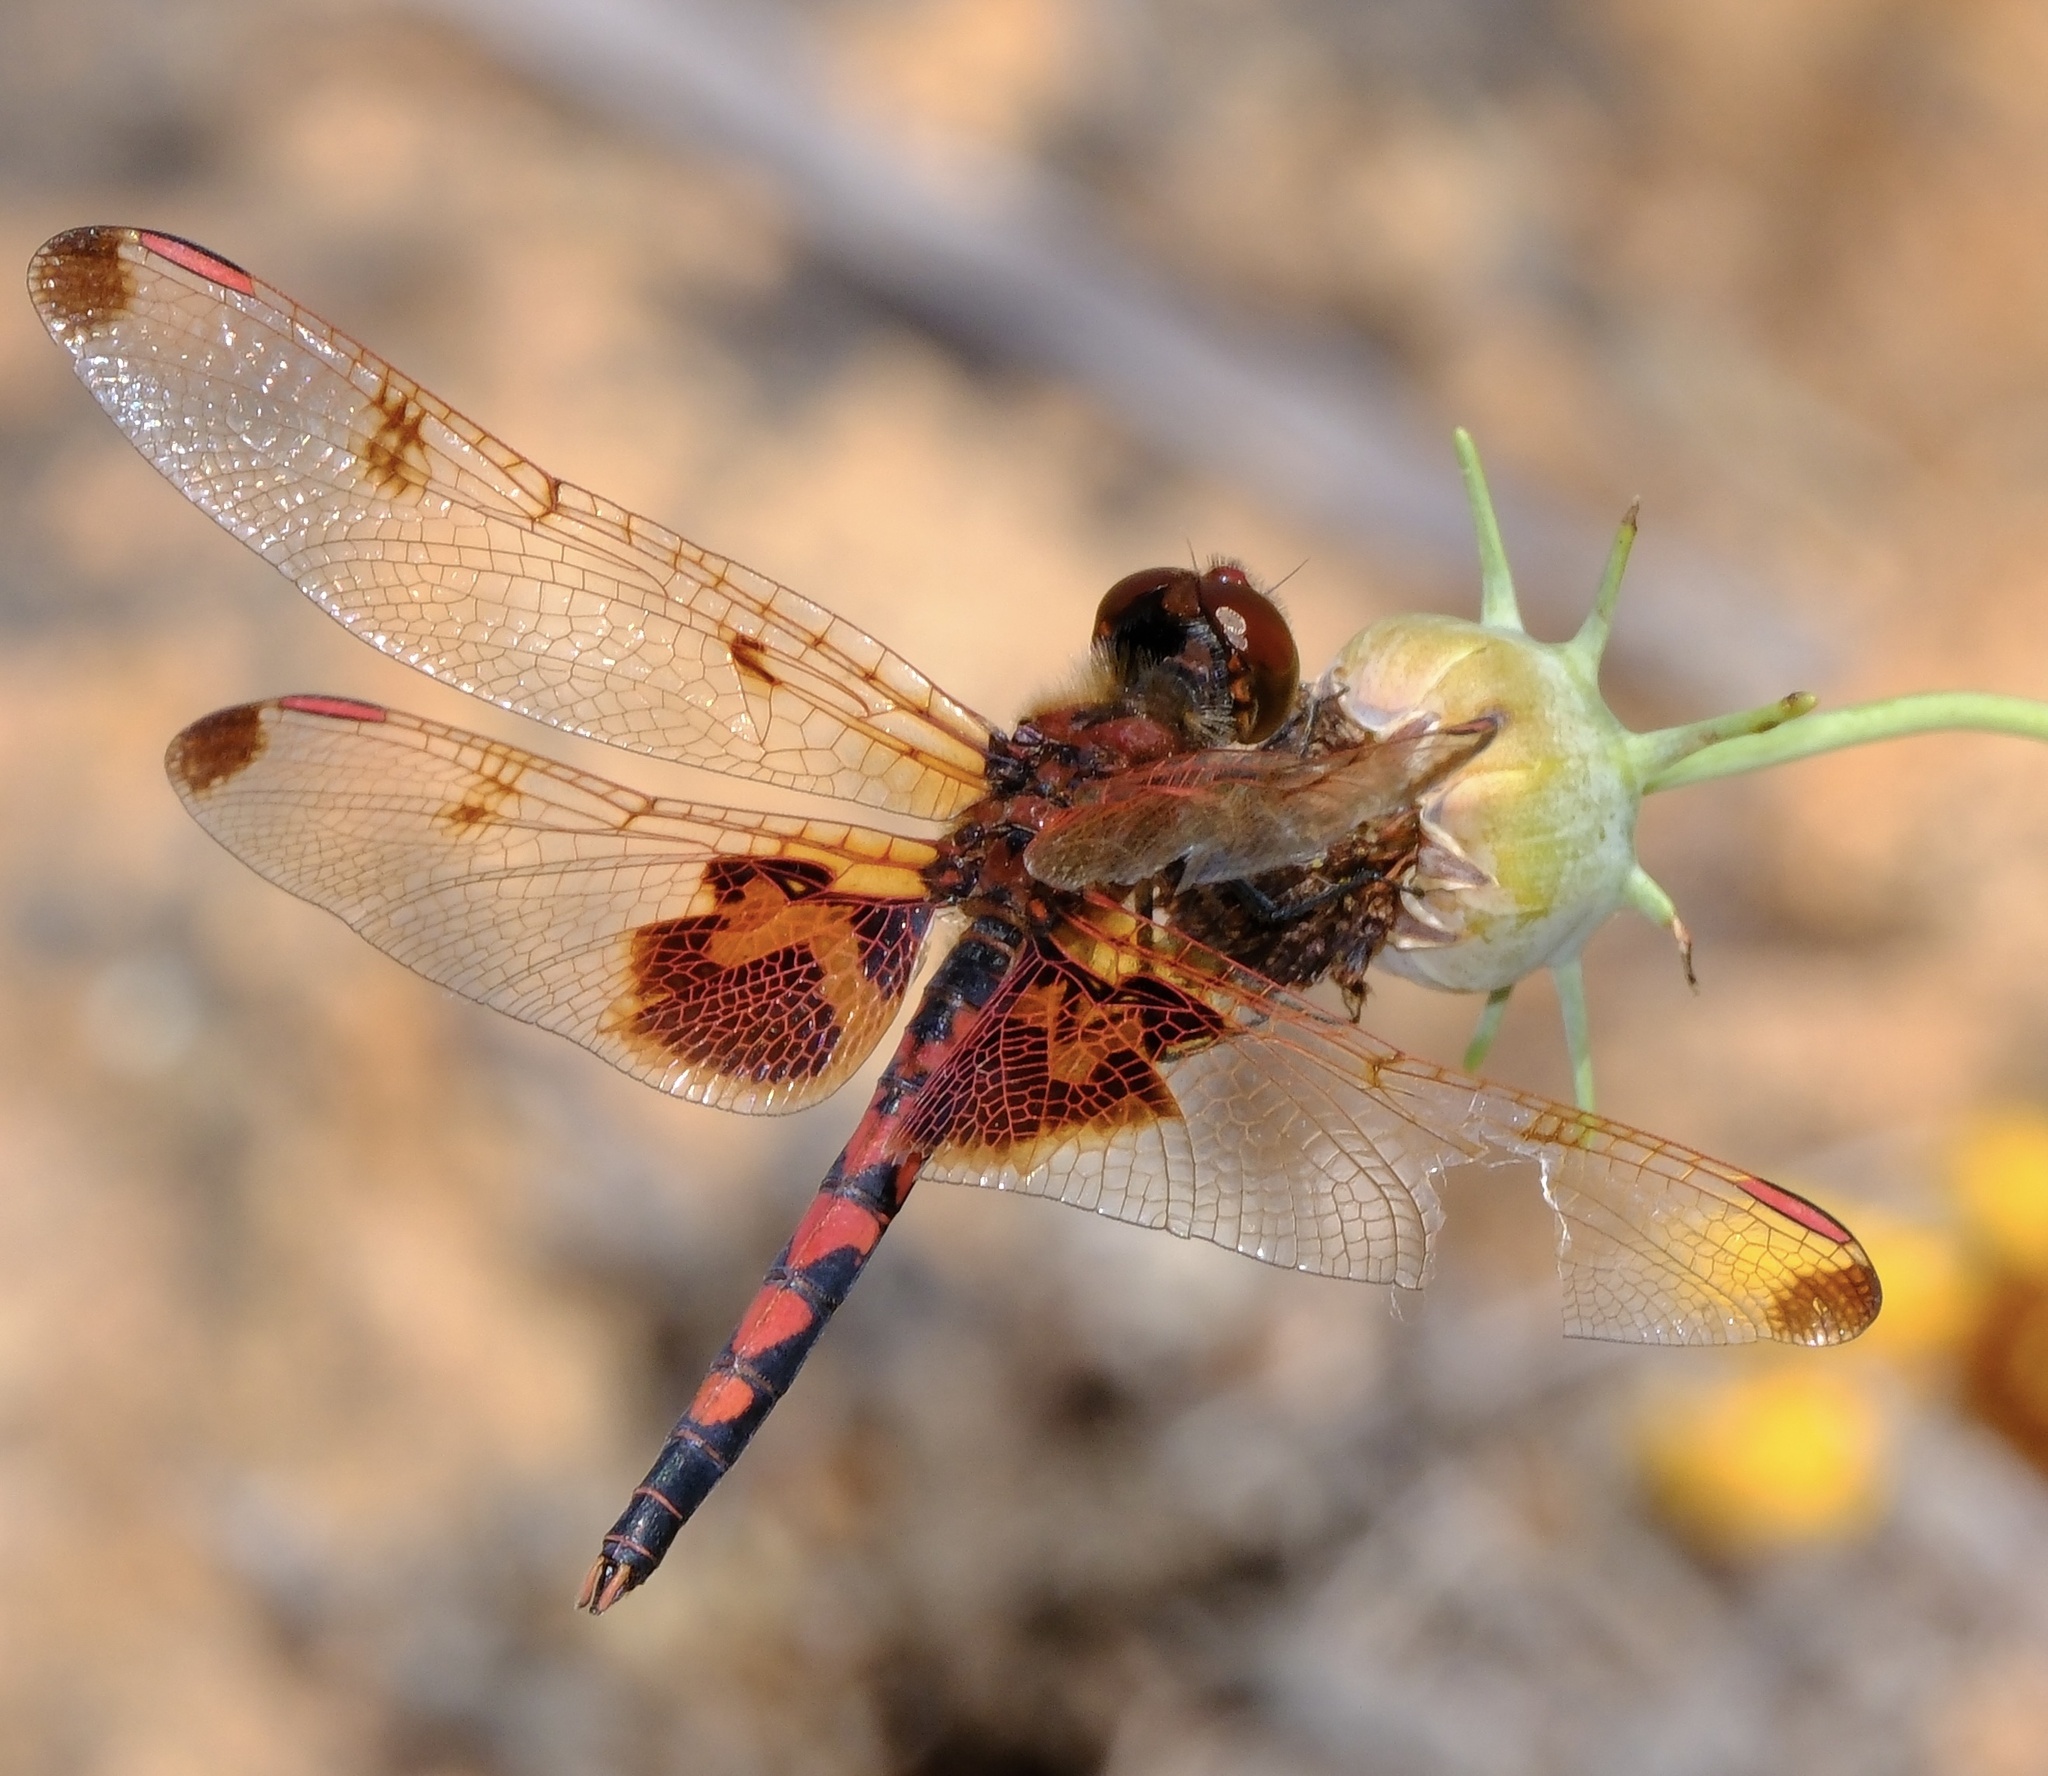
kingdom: Animalia
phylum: Arthropoda
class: Insecta
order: Odonata
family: Libellulidae
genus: Celithemis
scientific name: Celithemis elisa
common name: Calico pennant
